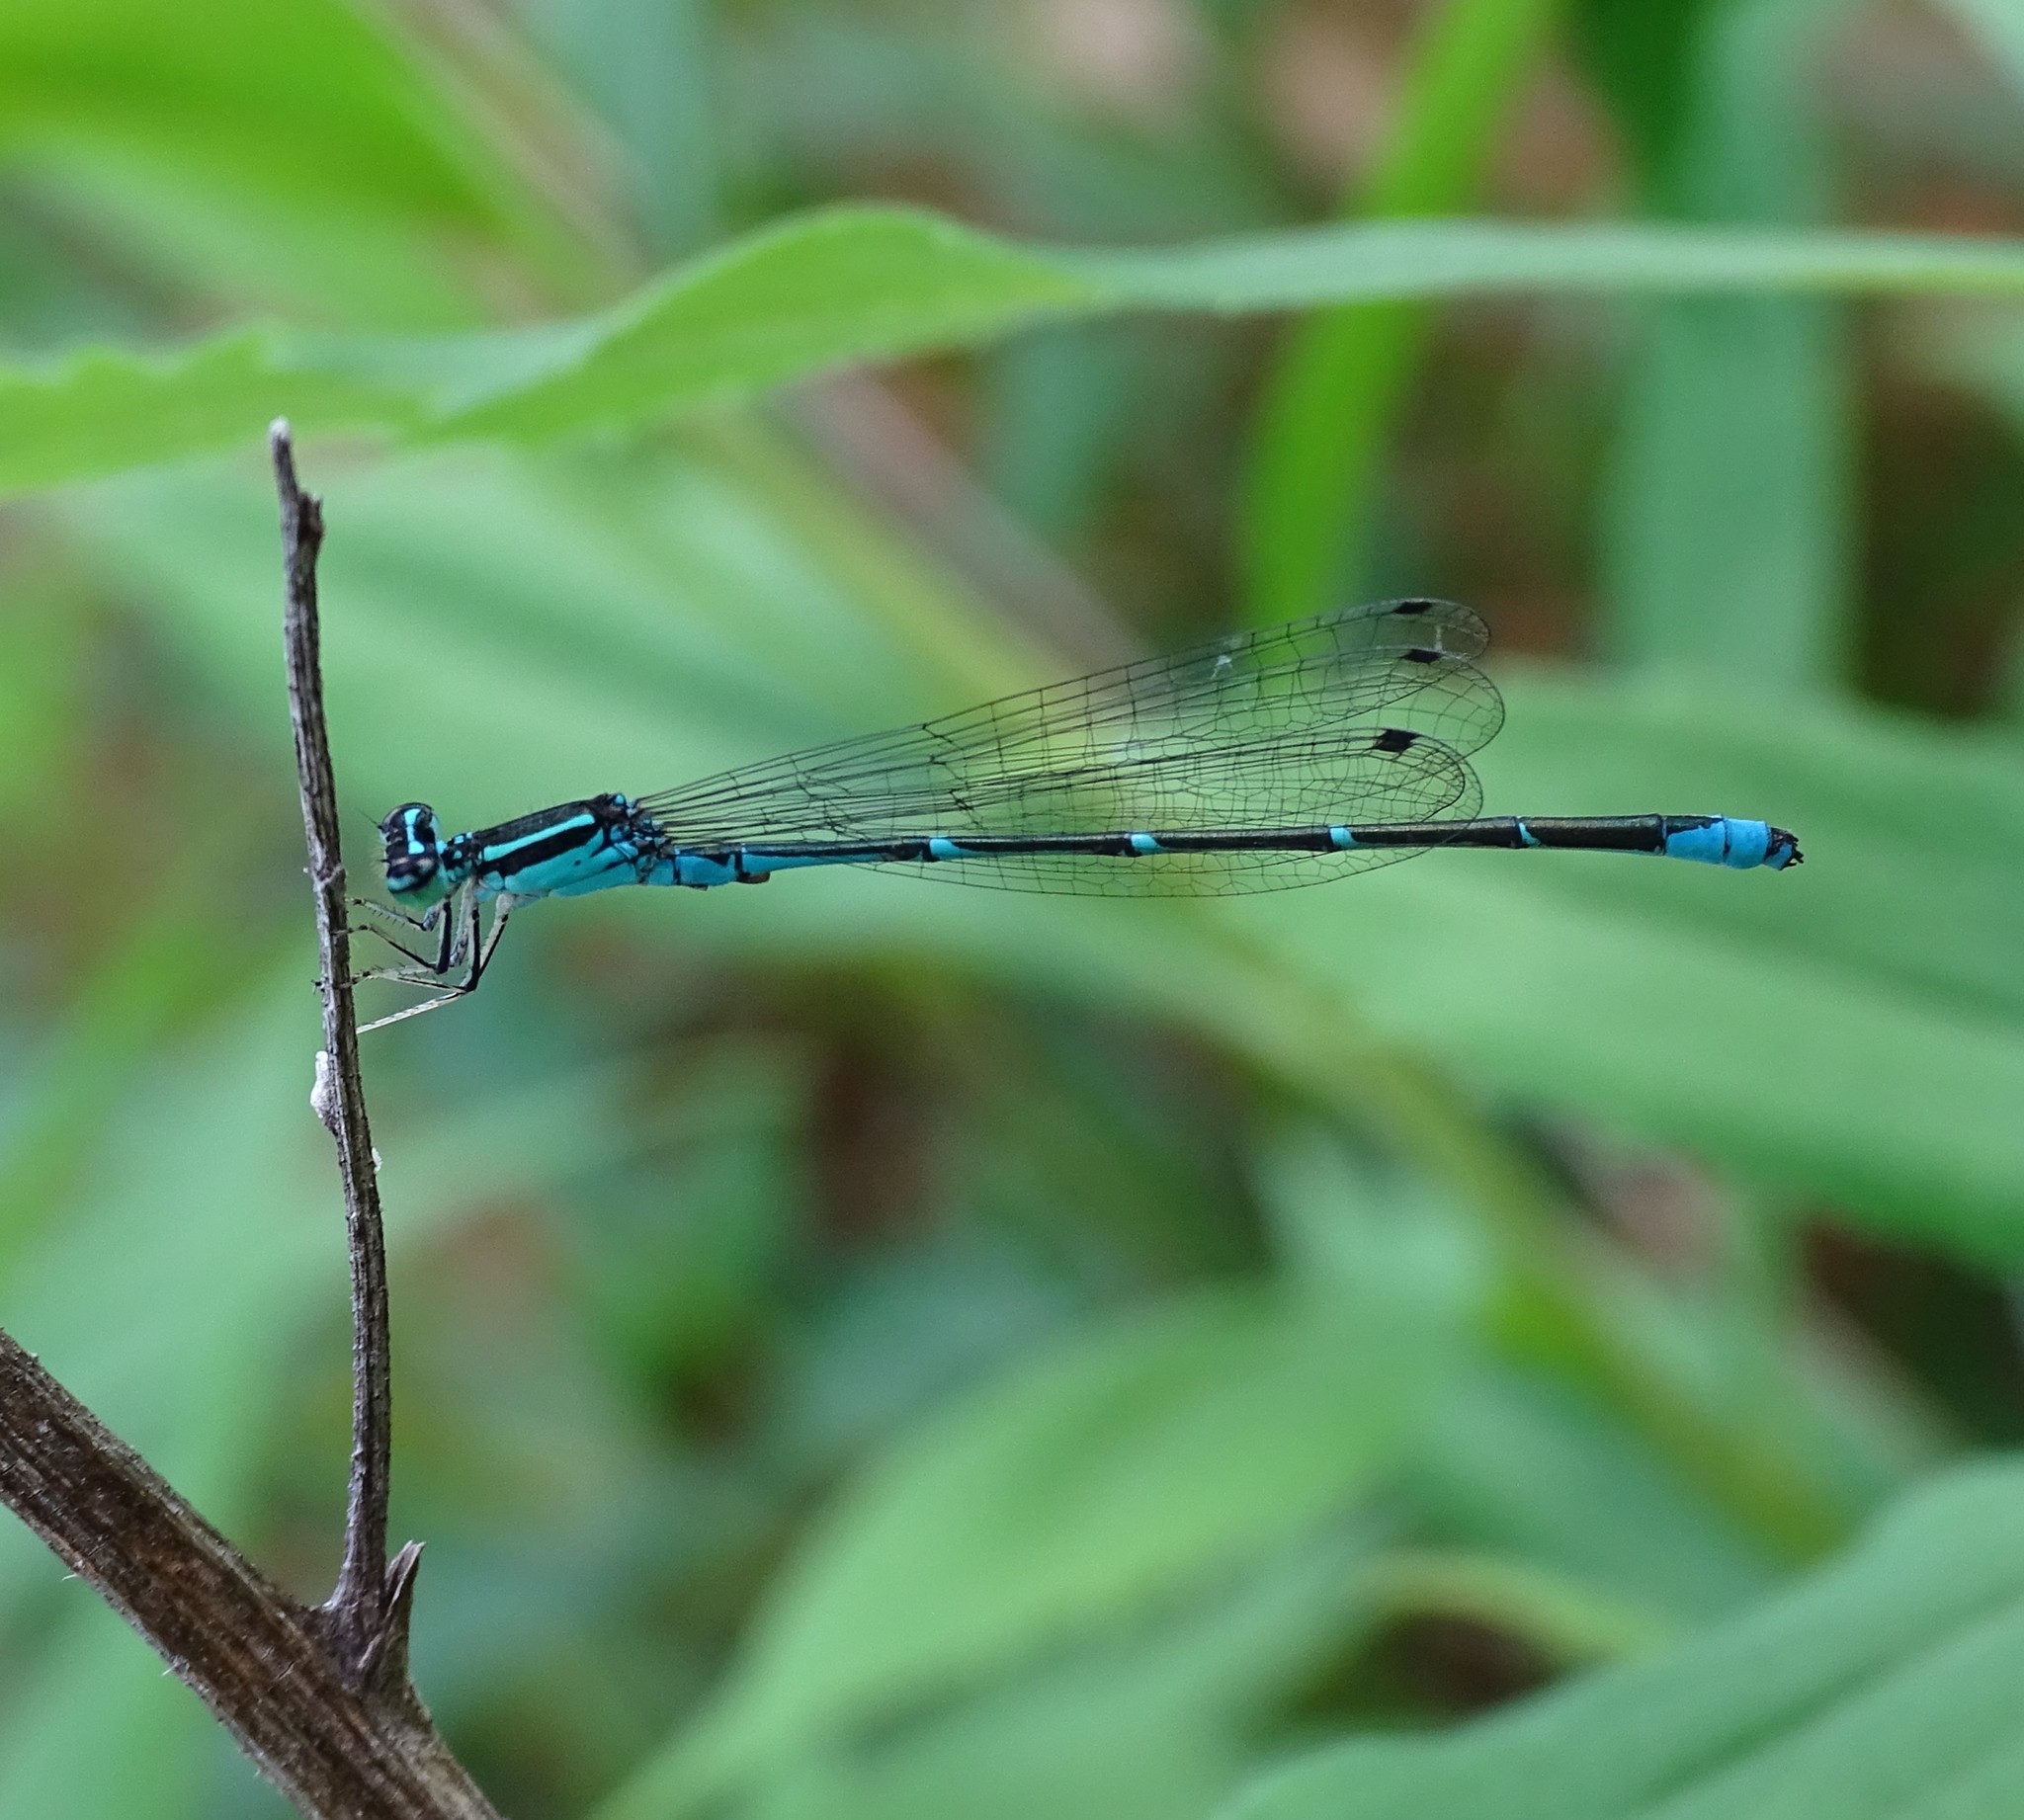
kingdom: Animalia
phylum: Arthropoda
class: Insecta
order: Odonata
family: Coenagrionidae
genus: Enallagma
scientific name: Enallagma exsulans
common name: Stream bluet
